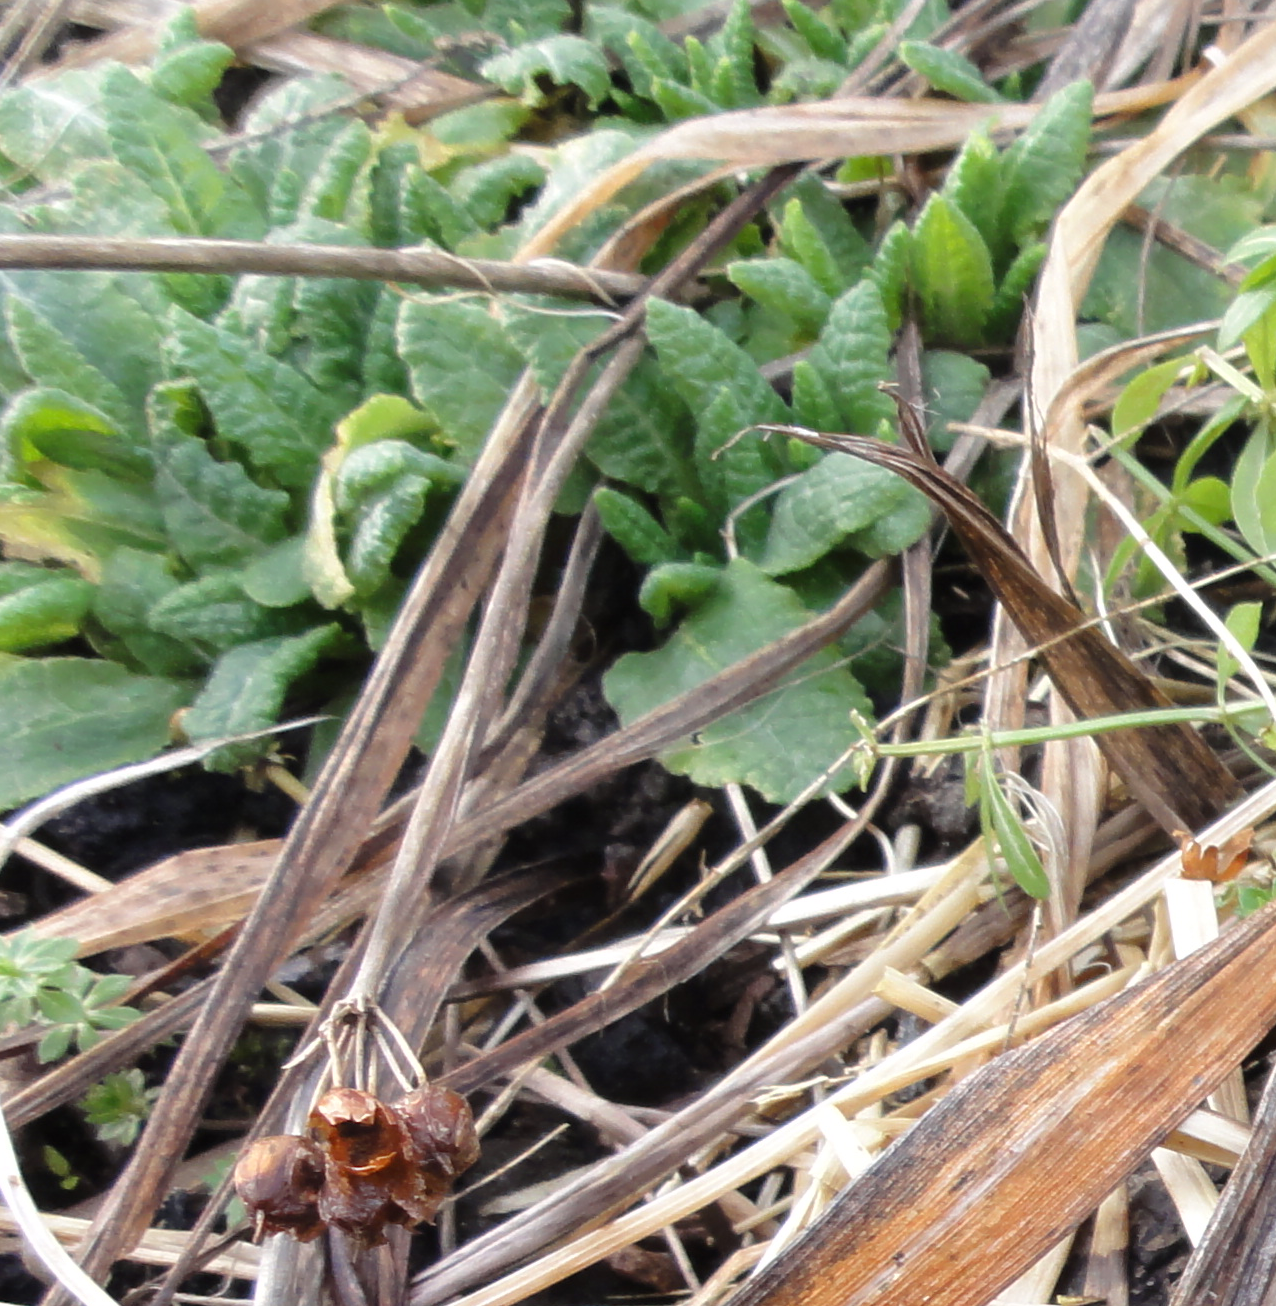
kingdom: Plantae
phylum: Tracheophyta
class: Magnoliopsida
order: Ericales
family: Primulaceae
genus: Primula
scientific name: Primula veris
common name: Cowslip
